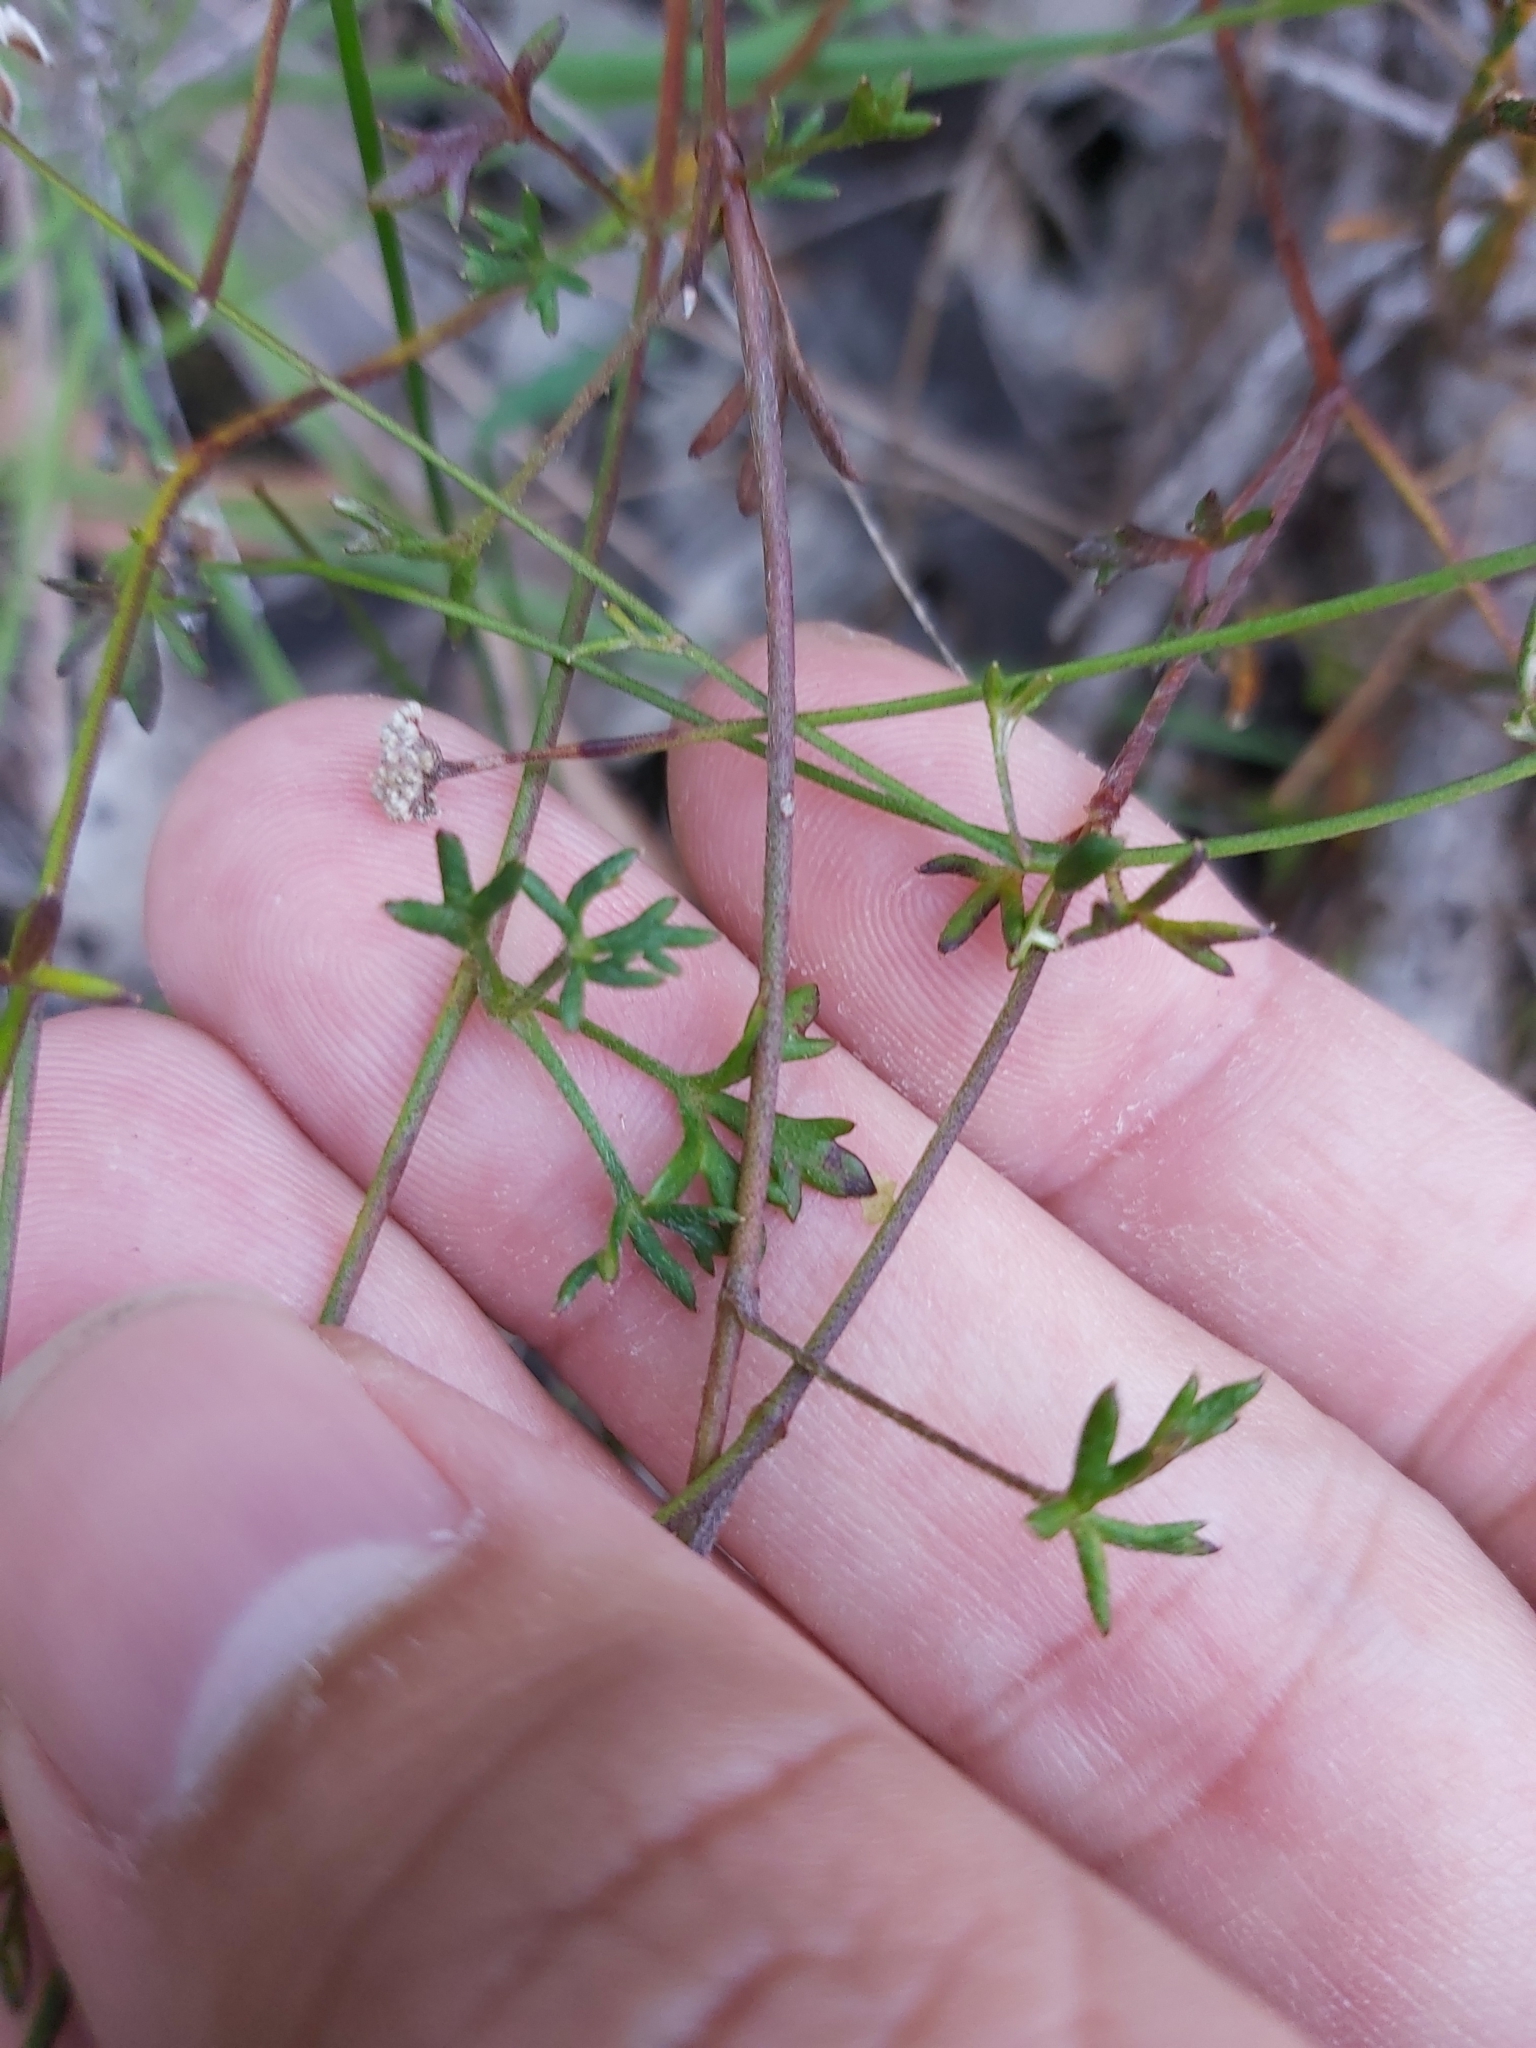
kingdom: Plantae
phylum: Tracheophyta
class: Magnoliopsida
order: Apiales
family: Apiaceae
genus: Actinotus
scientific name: Actinotus minor
